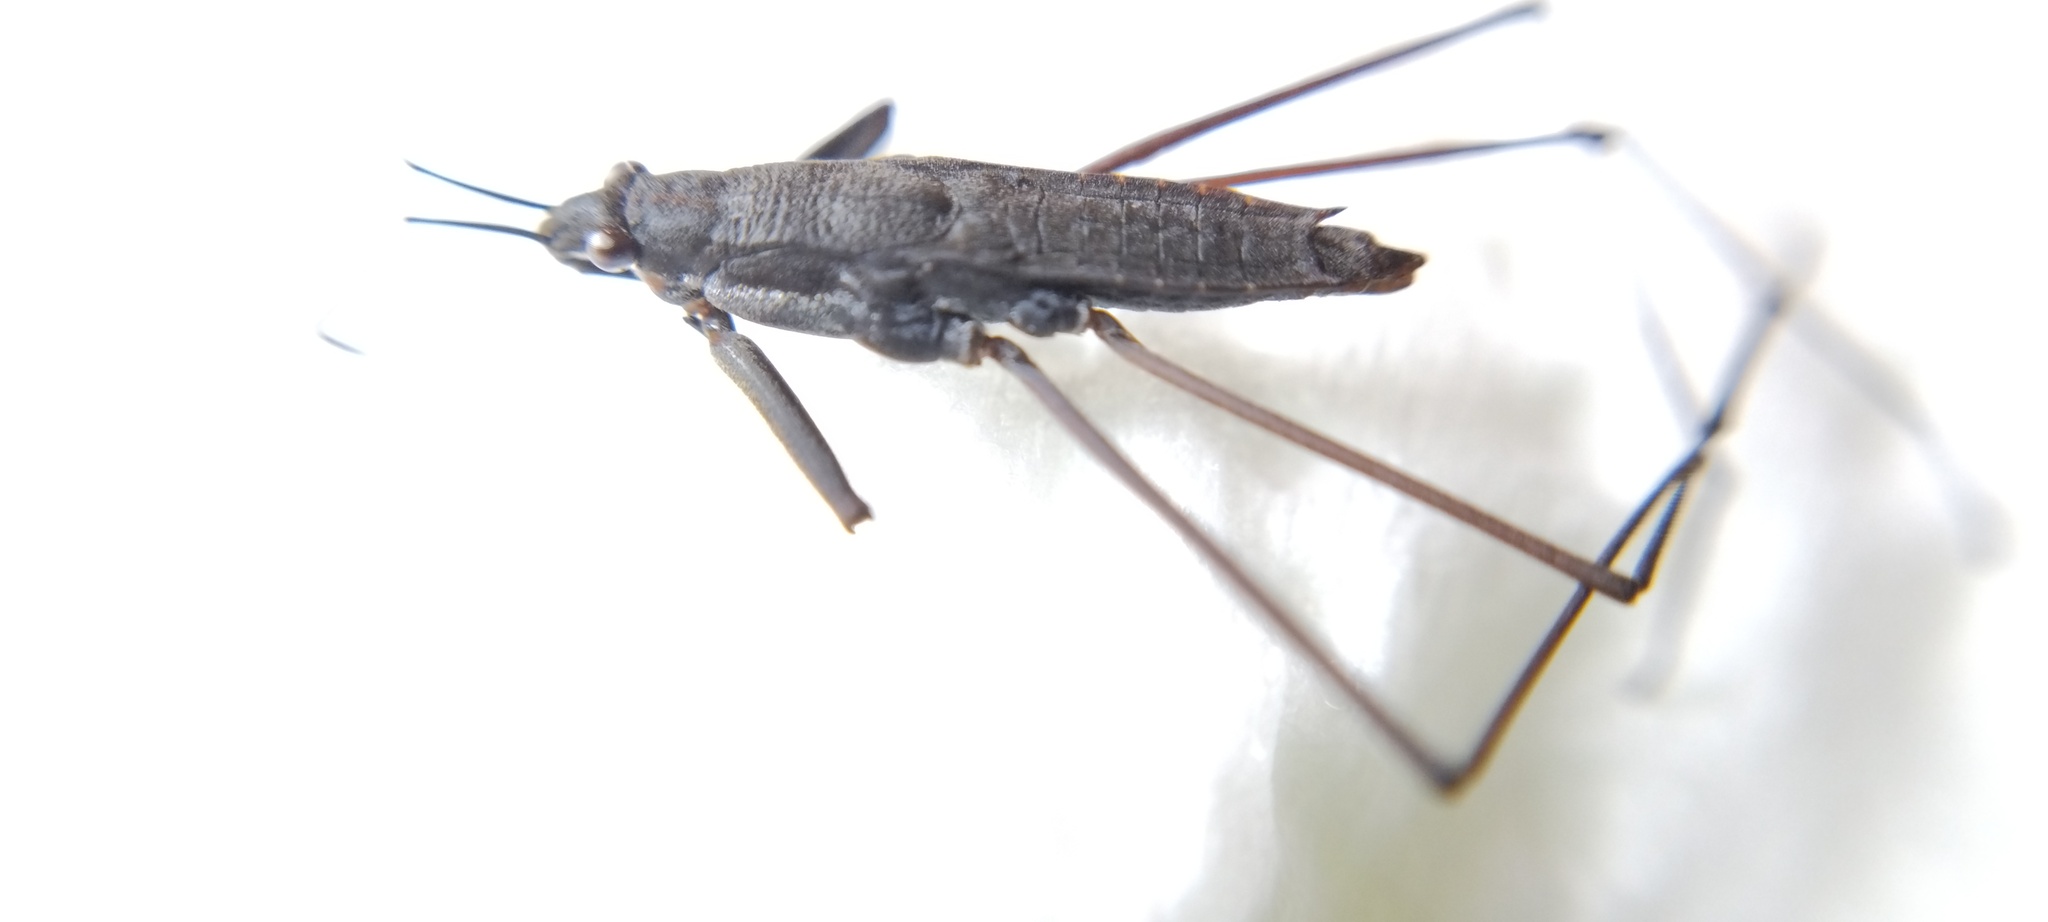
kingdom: Animalia
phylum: Arthropoda
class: Insecta
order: Hemiptera
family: Gerridae
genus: Aquarius
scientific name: Aquarius remigis
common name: Common water strider
